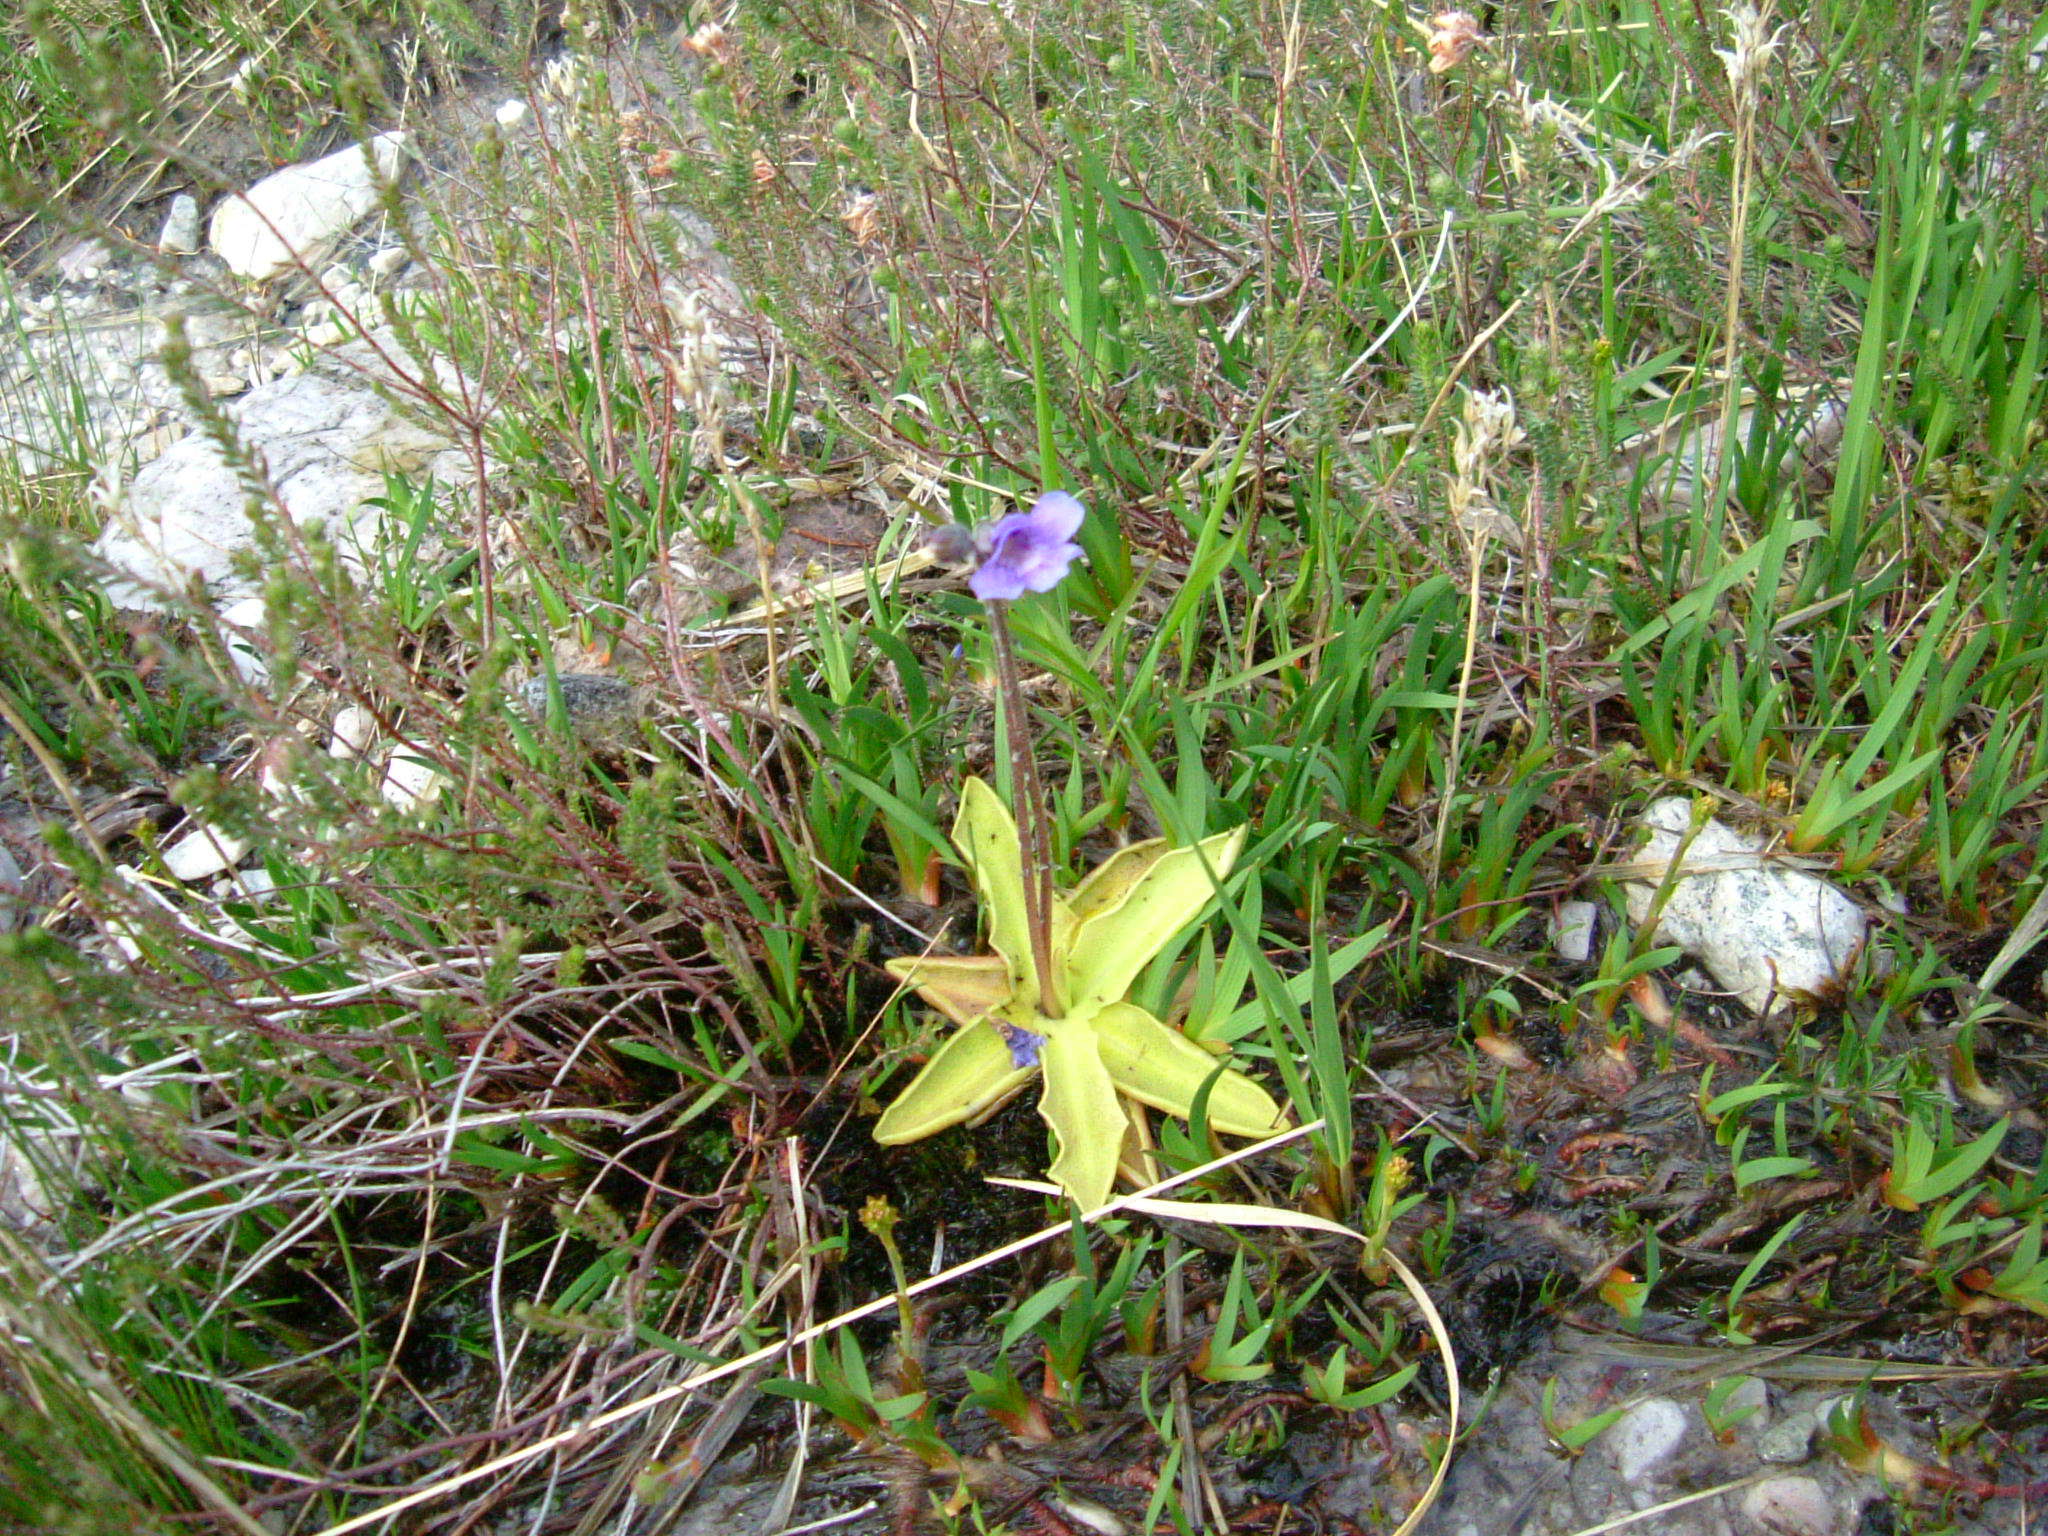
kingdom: Plantae
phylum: Tracheophyta
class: Magnoliopsida
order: Lamiales
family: Lentibulariaceae
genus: Pinguicula
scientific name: Pinguicula vulgaris
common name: Common butterwort
